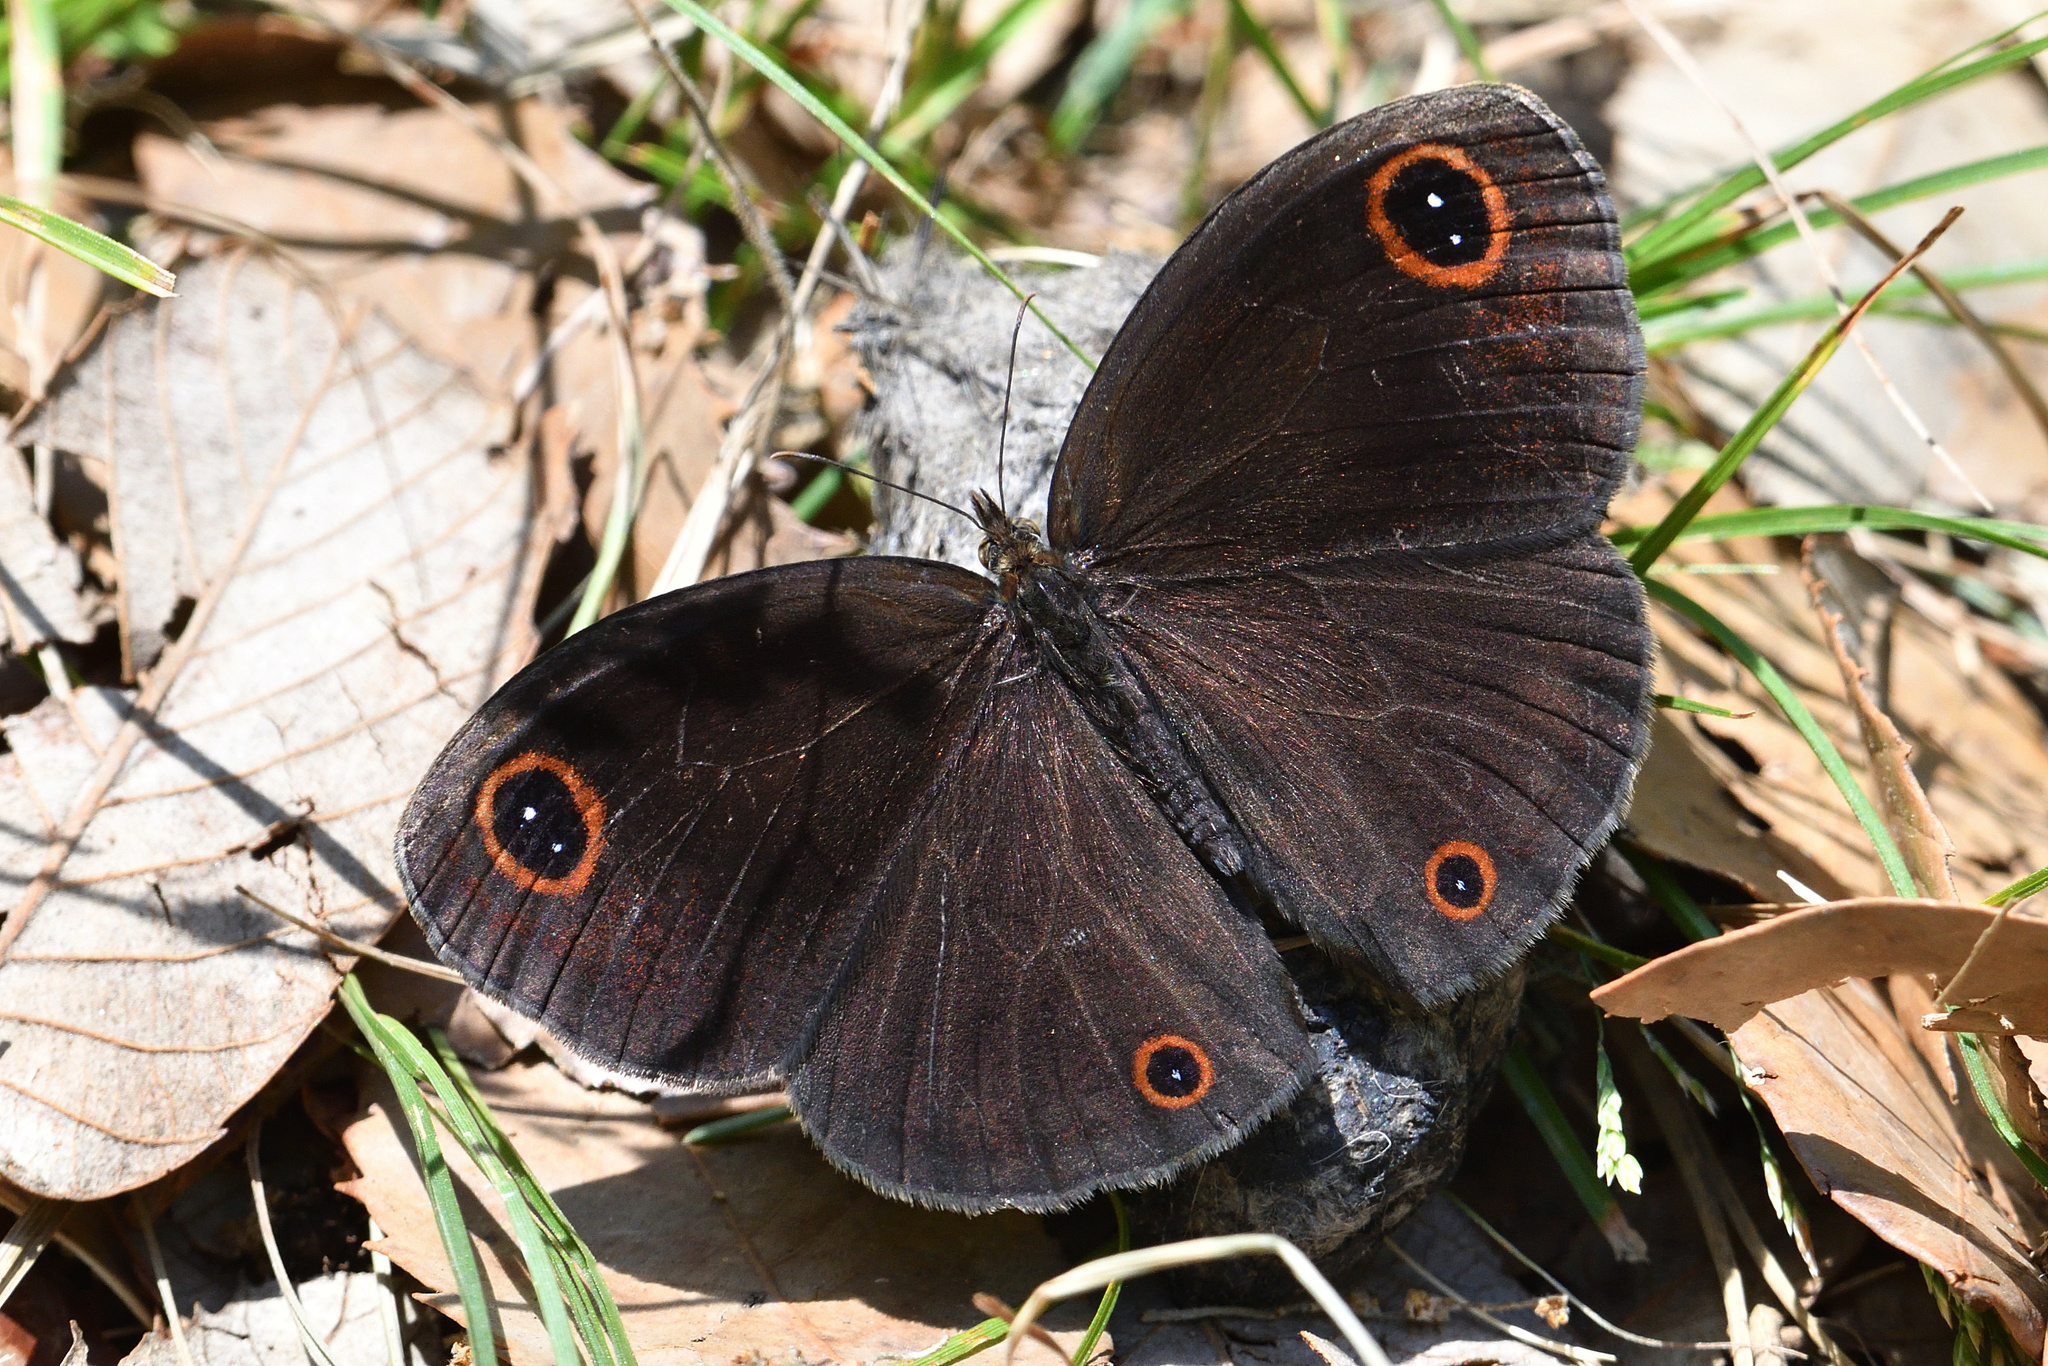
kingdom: Animalia
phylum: Arthropoda
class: Insecta
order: Lepidoptera
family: Nymphalidae
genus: Callerebia
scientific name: Callerebia annada
